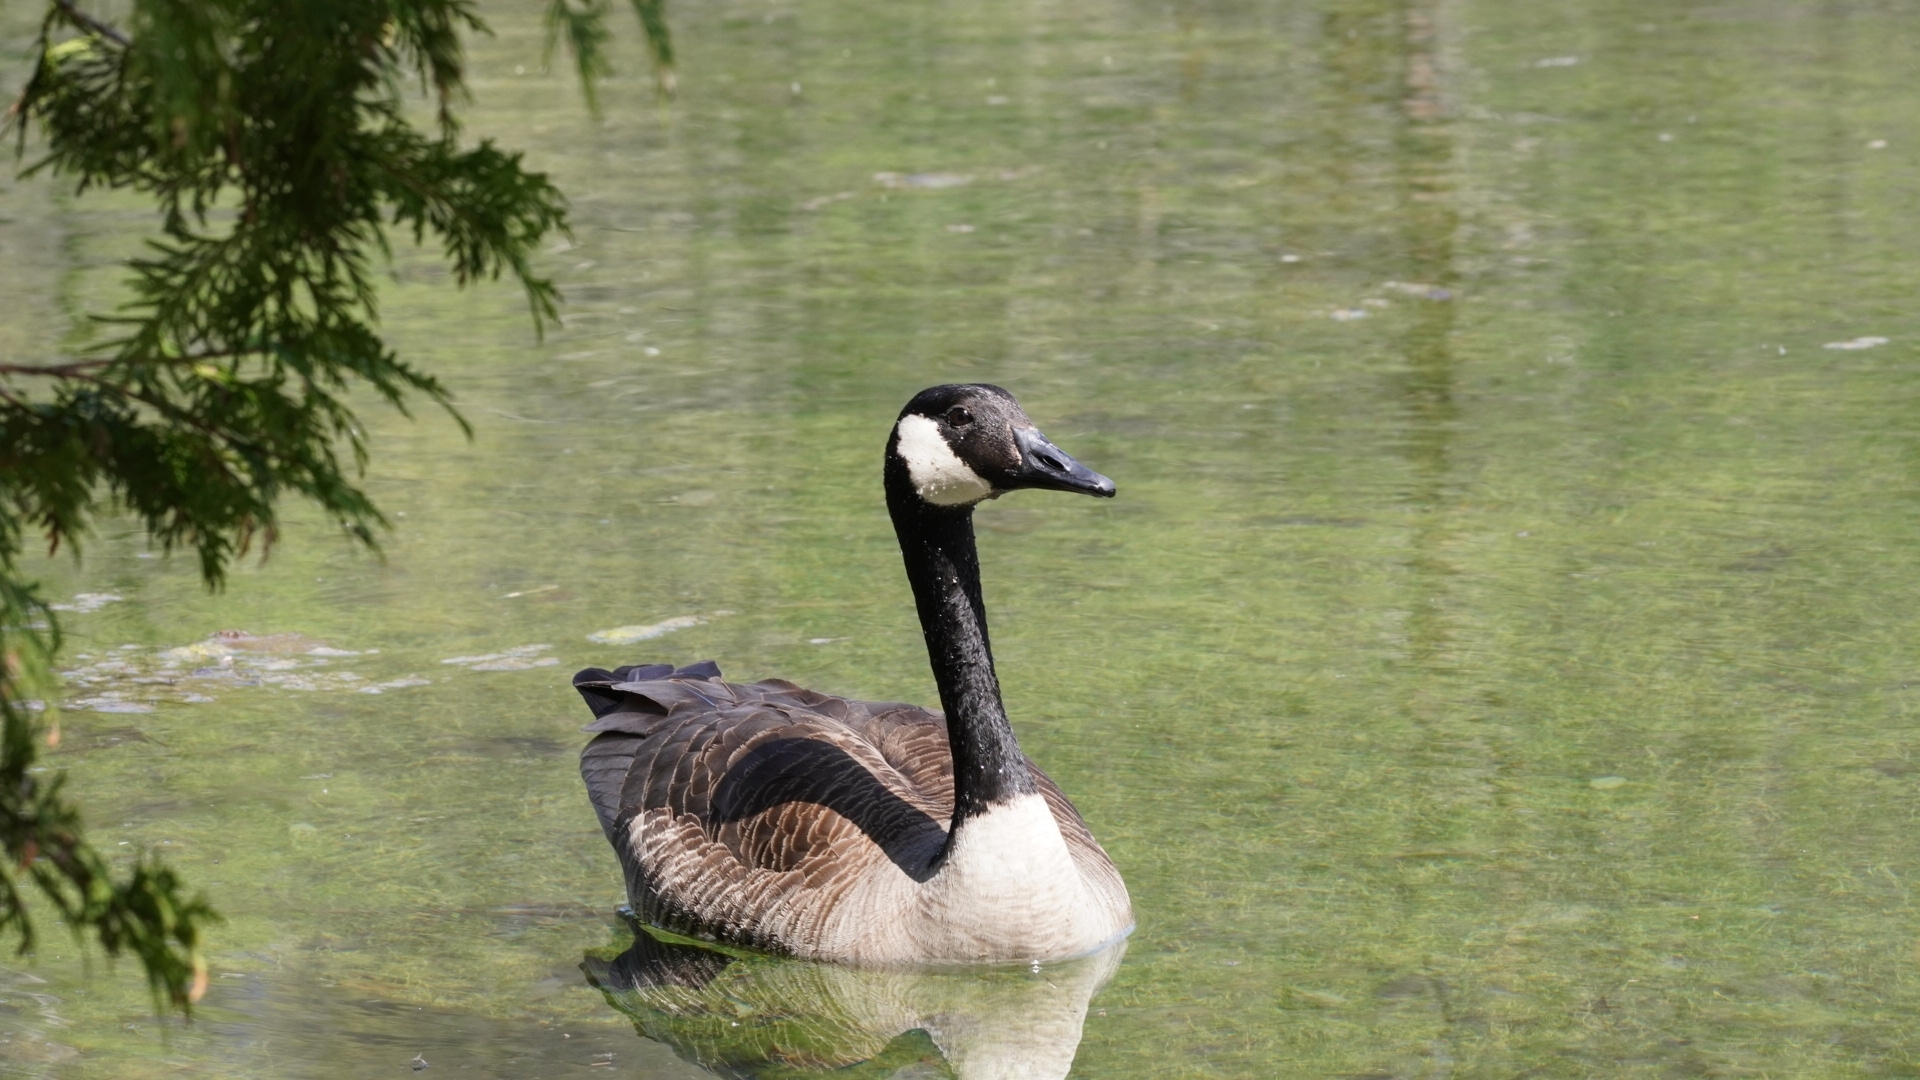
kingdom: Animalia
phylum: Chordata
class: Aves
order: Anseriformes
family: Anatidae
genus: Branta
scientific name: Branta canadensis
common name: Canada goose
